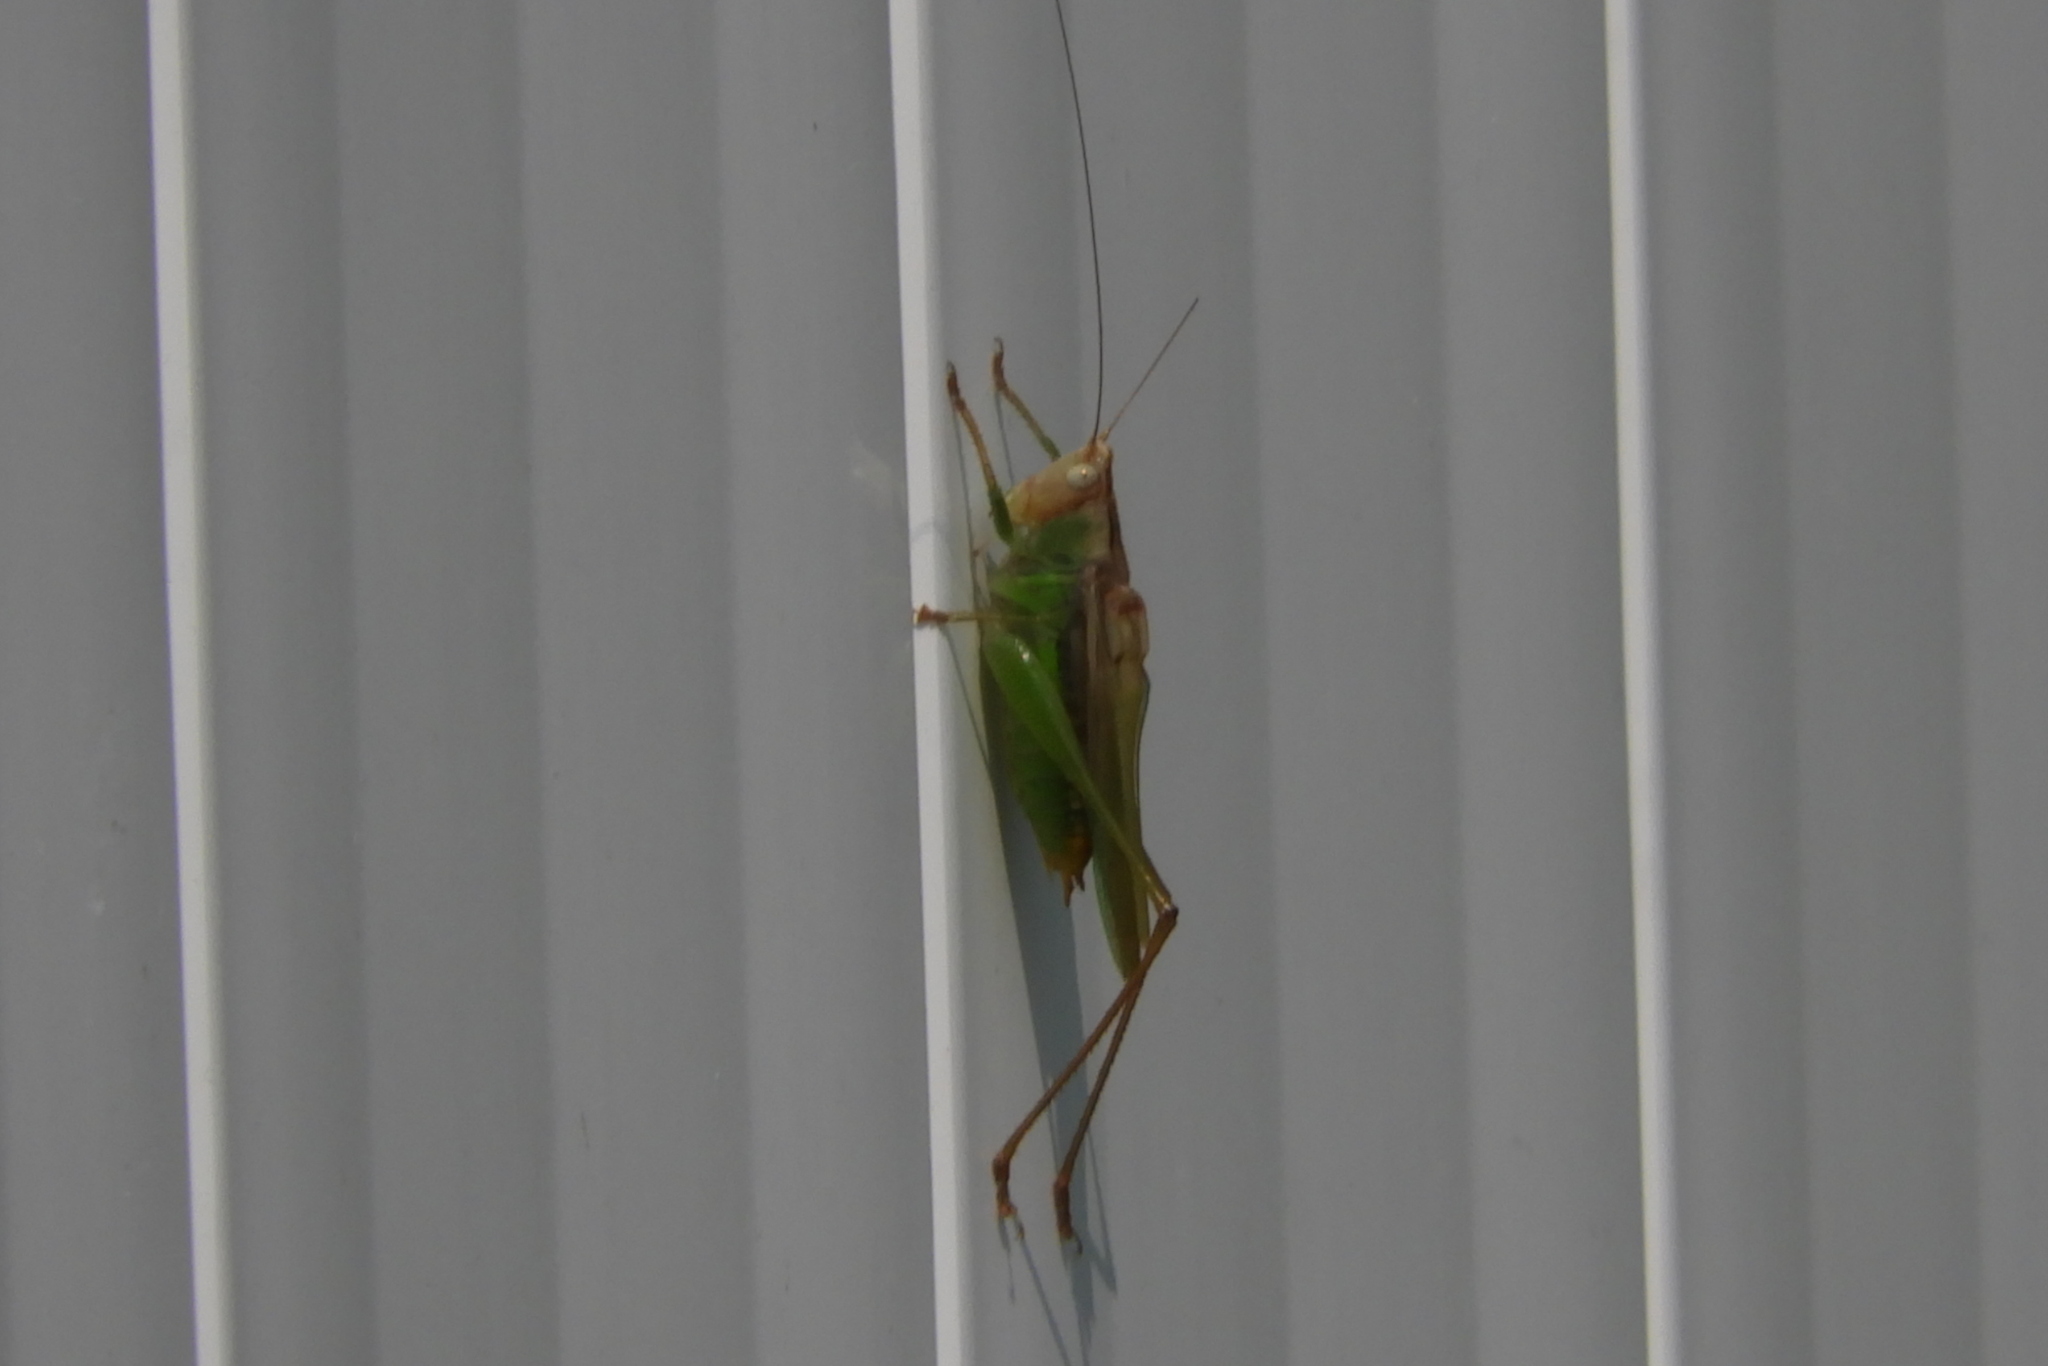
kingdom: Animalia
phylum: Arthropoda
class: Insecta
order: Orthoptera
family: Tettigoniidae
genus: Orchelimum
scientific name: Orchelimum agilis
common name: Agile meadow grasshopper
